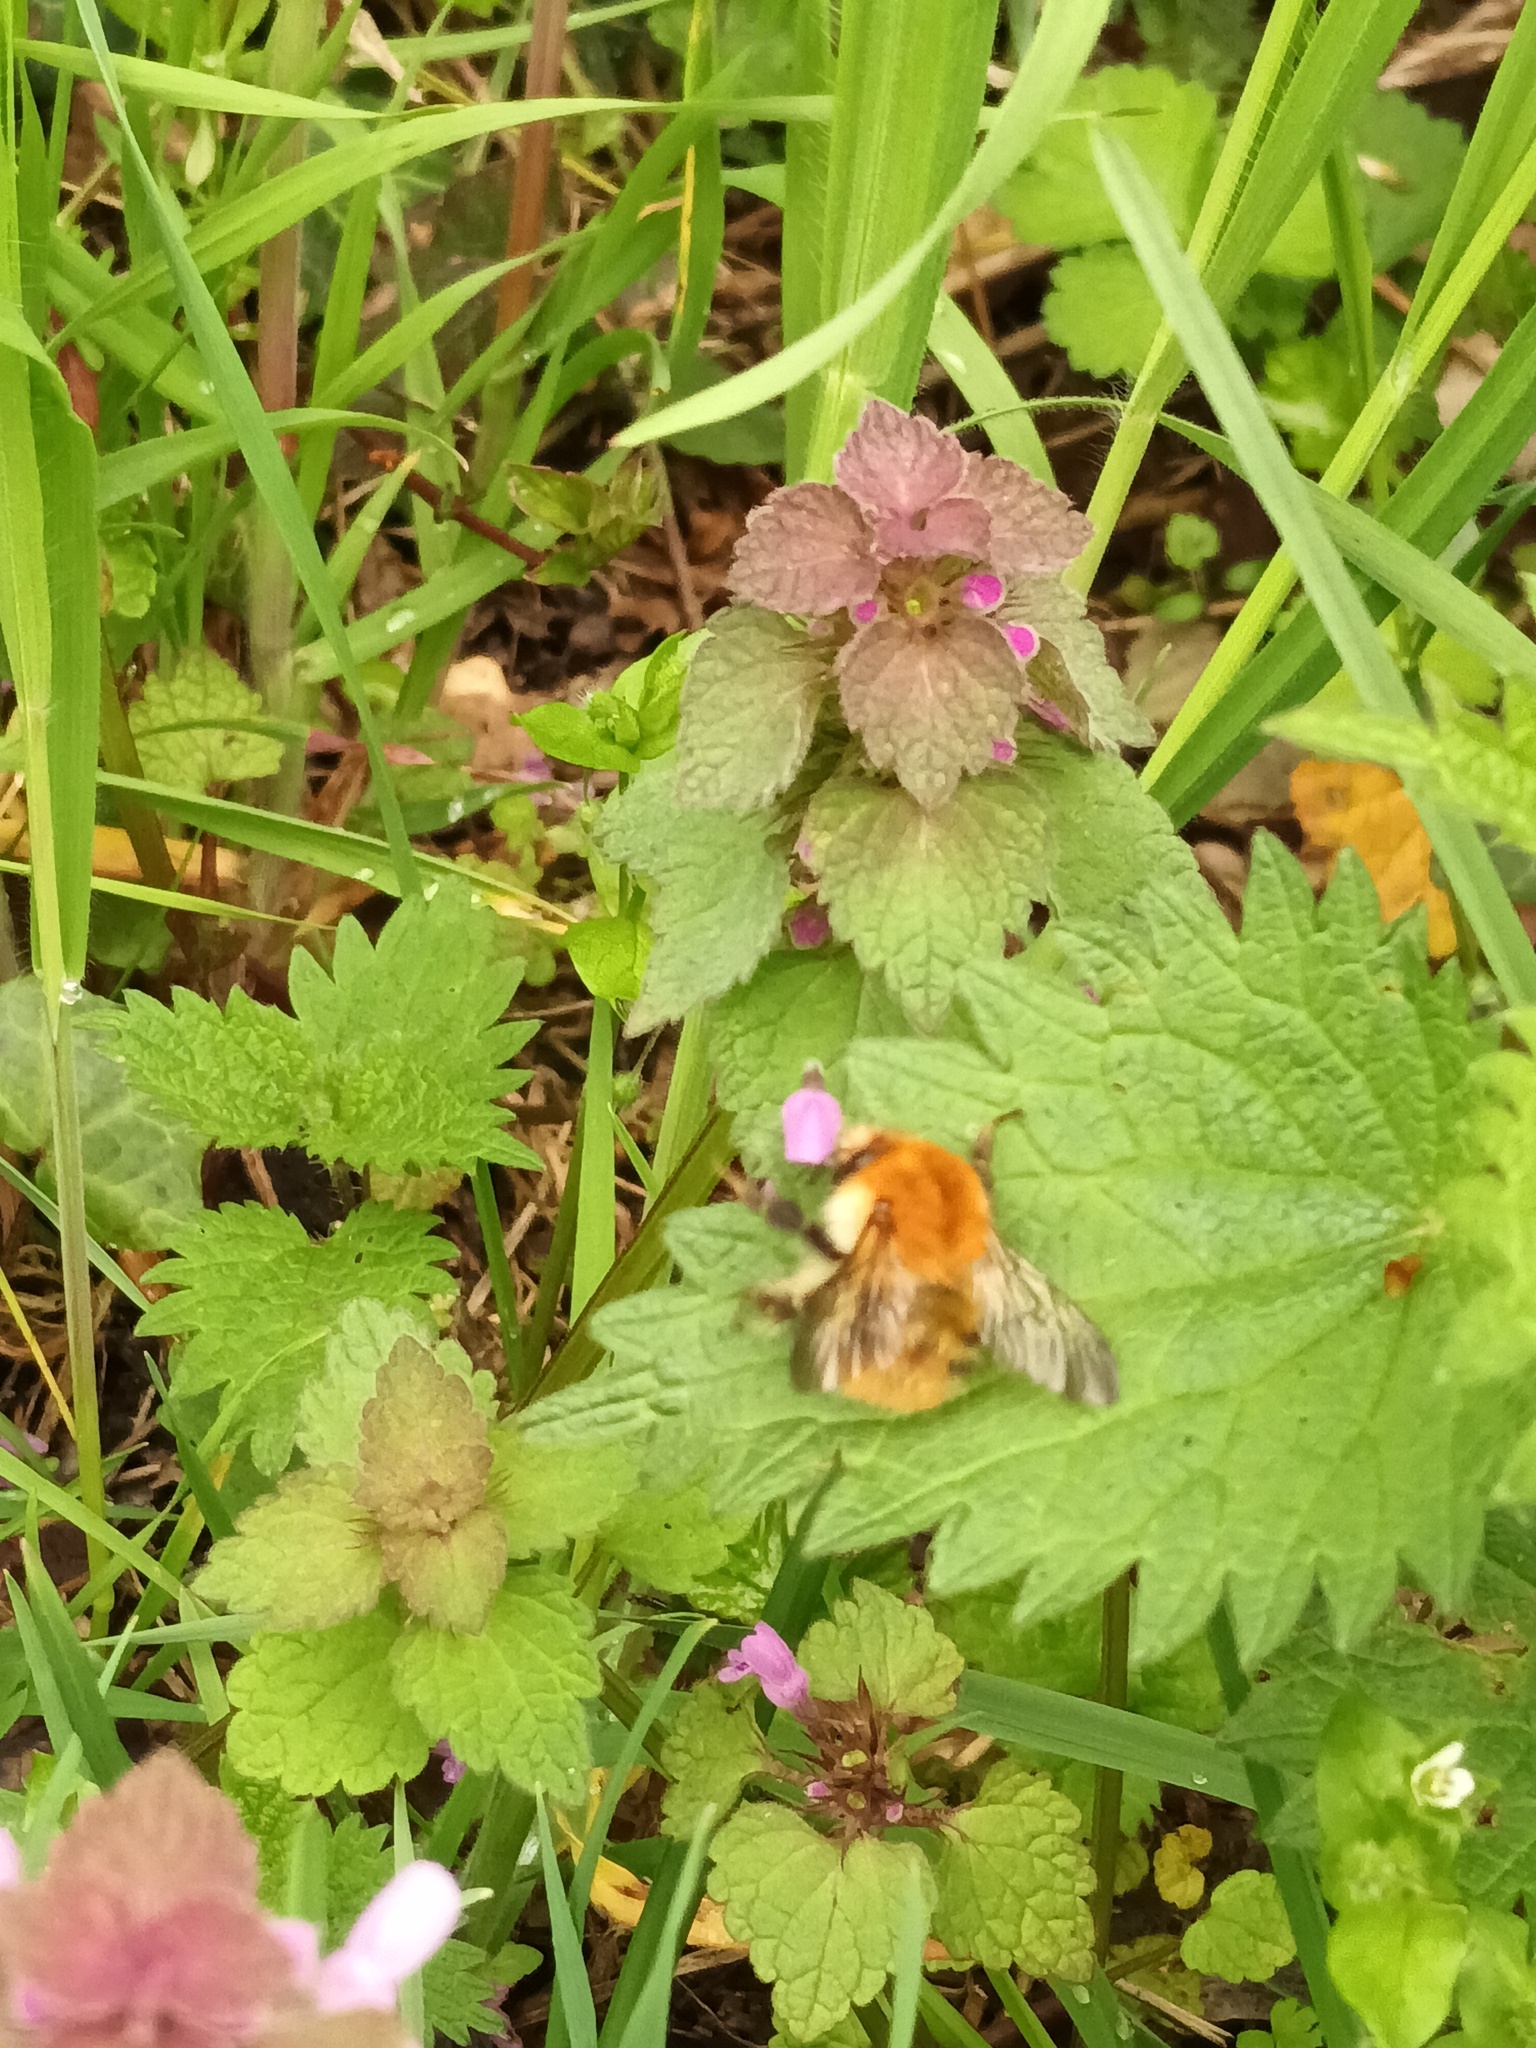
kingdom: Animalia
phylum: Arthropoda
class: Insecta
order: Hymenoptera
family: Apidae
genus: Bombus
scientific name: Bombus pascuorum
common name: Common carder bee
